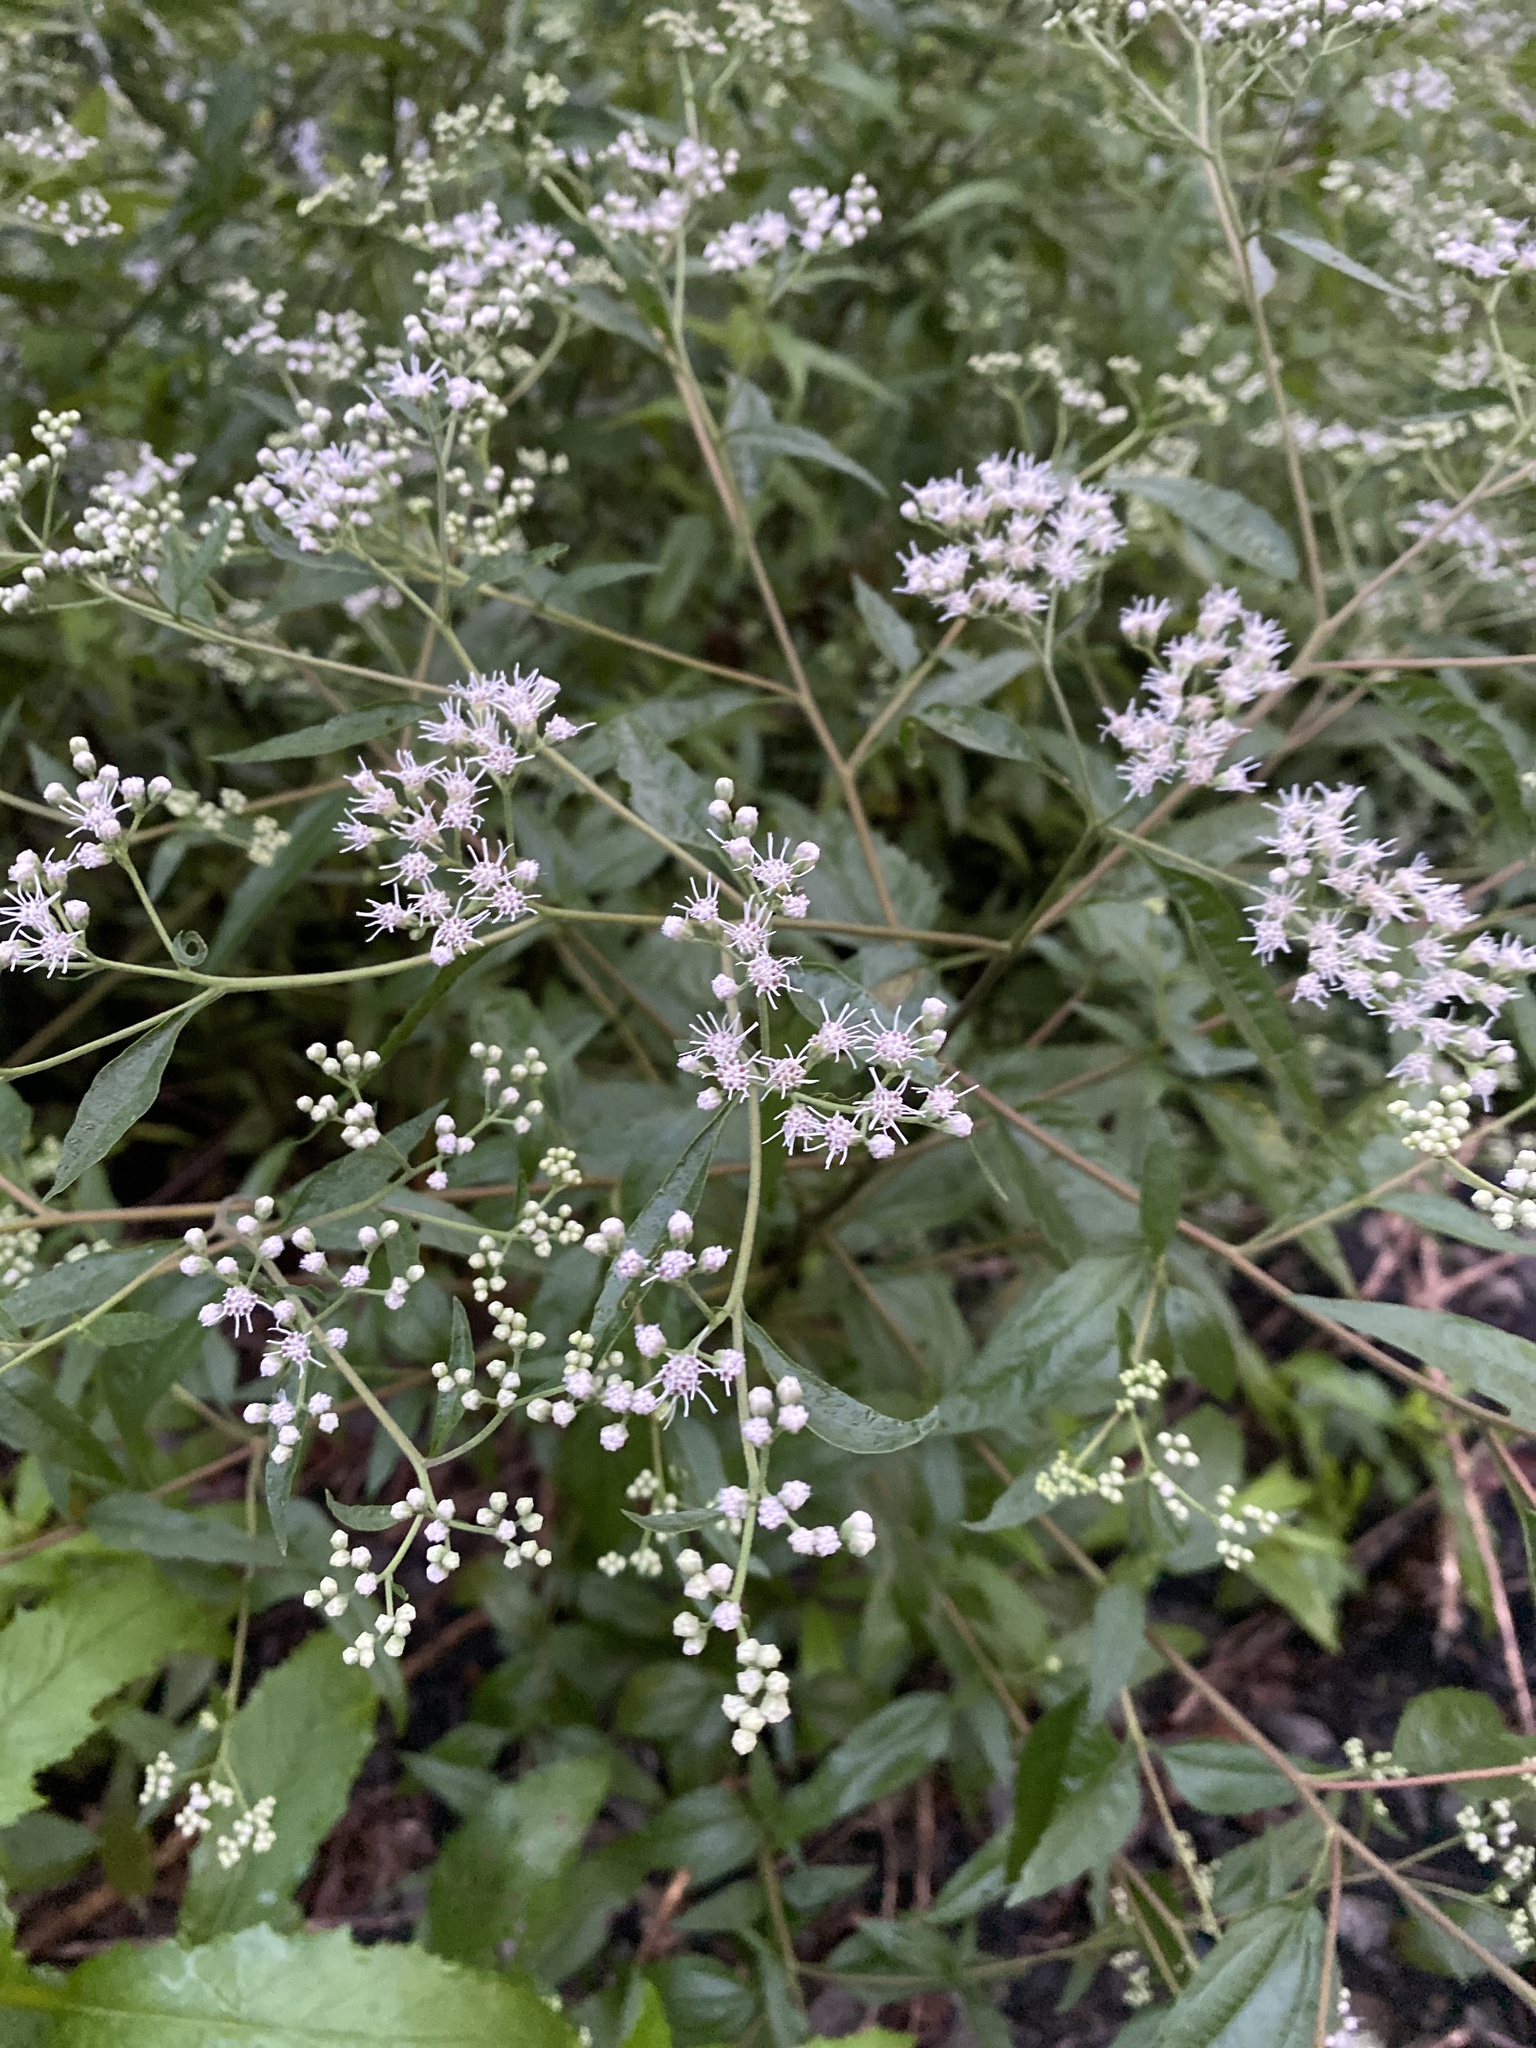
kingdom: Plantae
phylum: Tracheophyta
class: Magnoliopsida
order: Asterales
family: Asteraceae
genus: Eupatorium
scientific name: Eupatorium serotinum
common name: Late boneset
